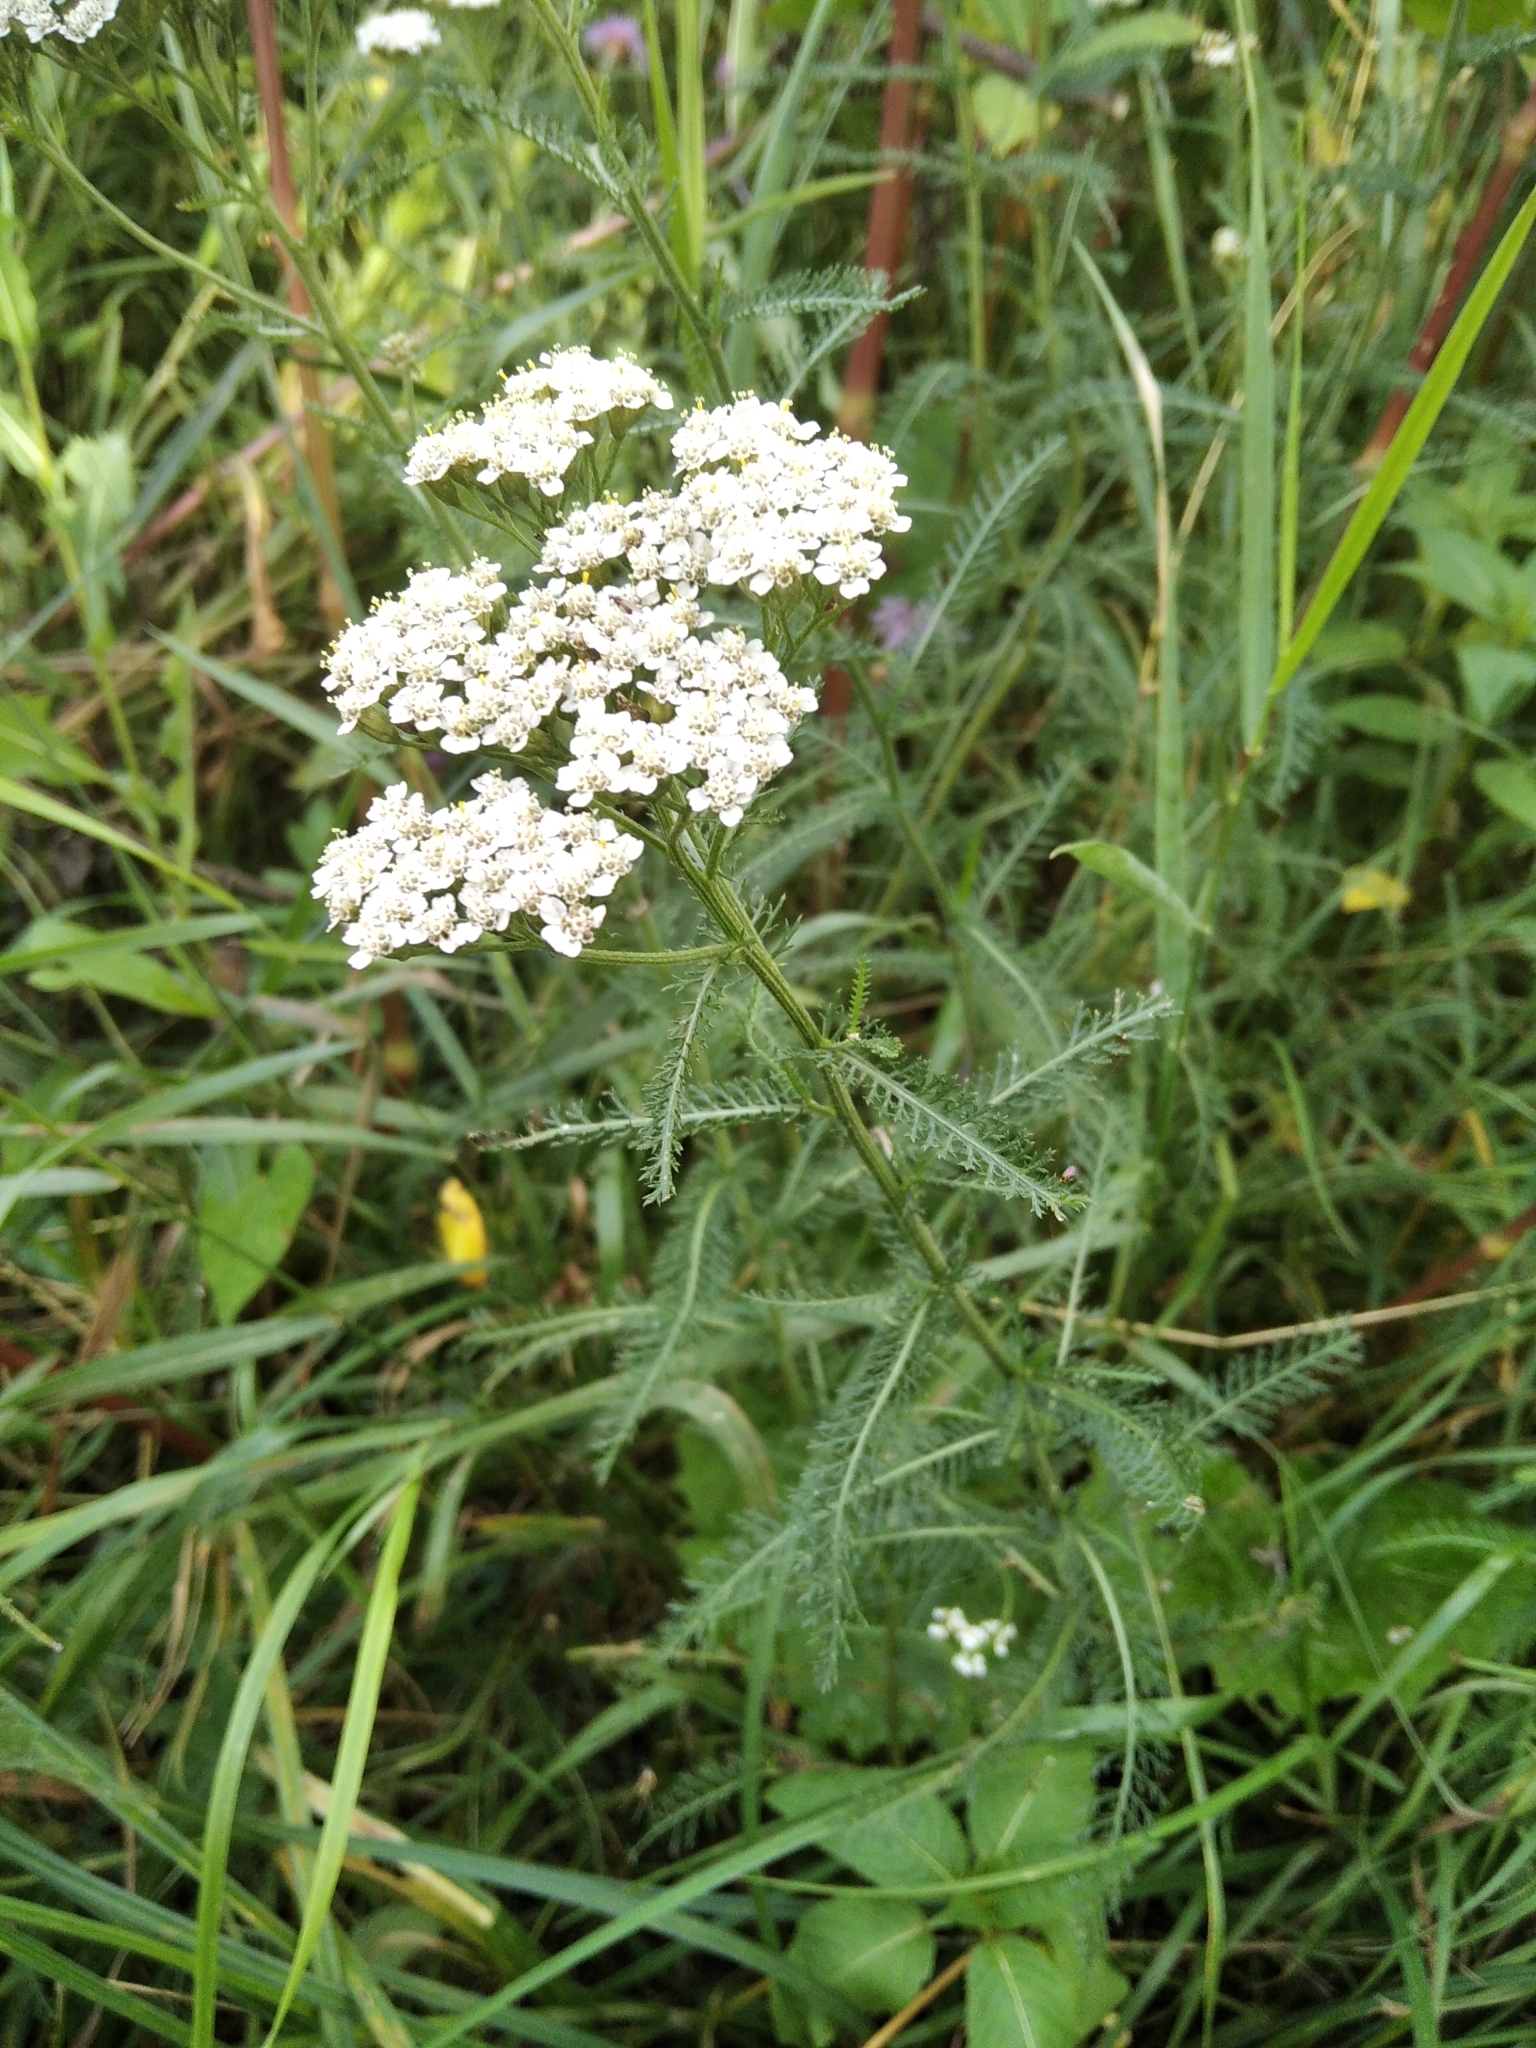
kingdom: Plantae
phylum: Tracheophyta
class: Magnoliopsida
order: Asterales
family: Asteraceae
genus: Achillea
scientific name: Achillea millefolium
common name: Yarrow
